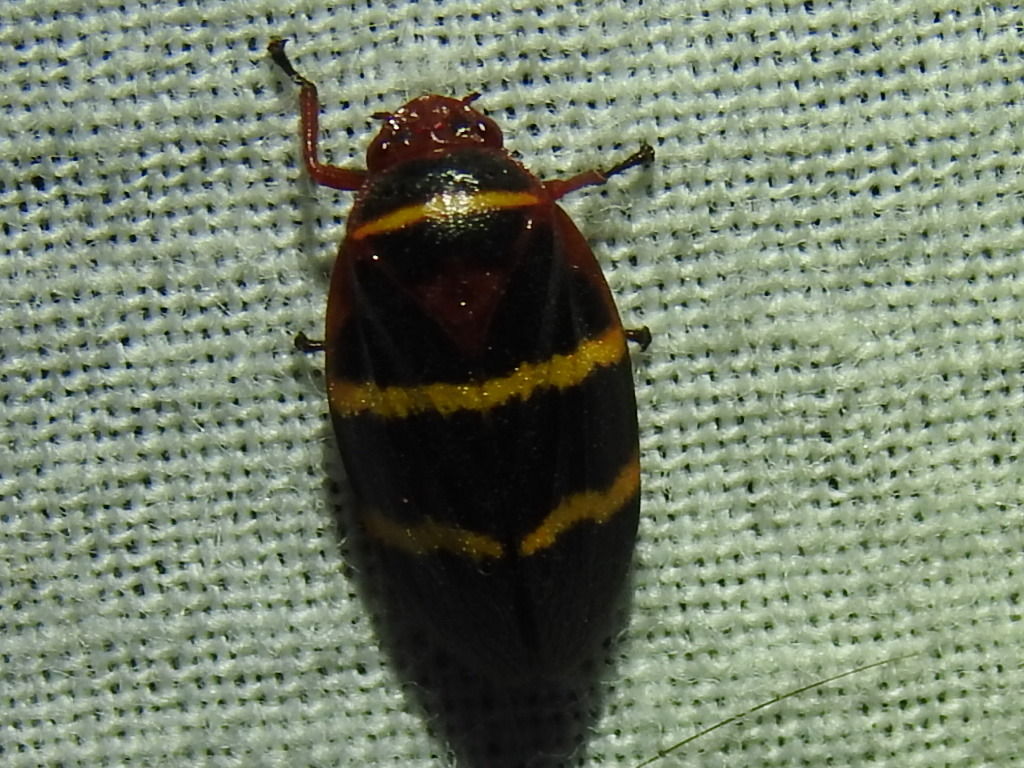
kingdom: Animalia
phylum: Arthropoda
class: Insecta
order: Hemiptera
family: Cercopidae
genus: Prosapia
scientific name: Prosapia bicincta
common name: Twolined spittlebug
